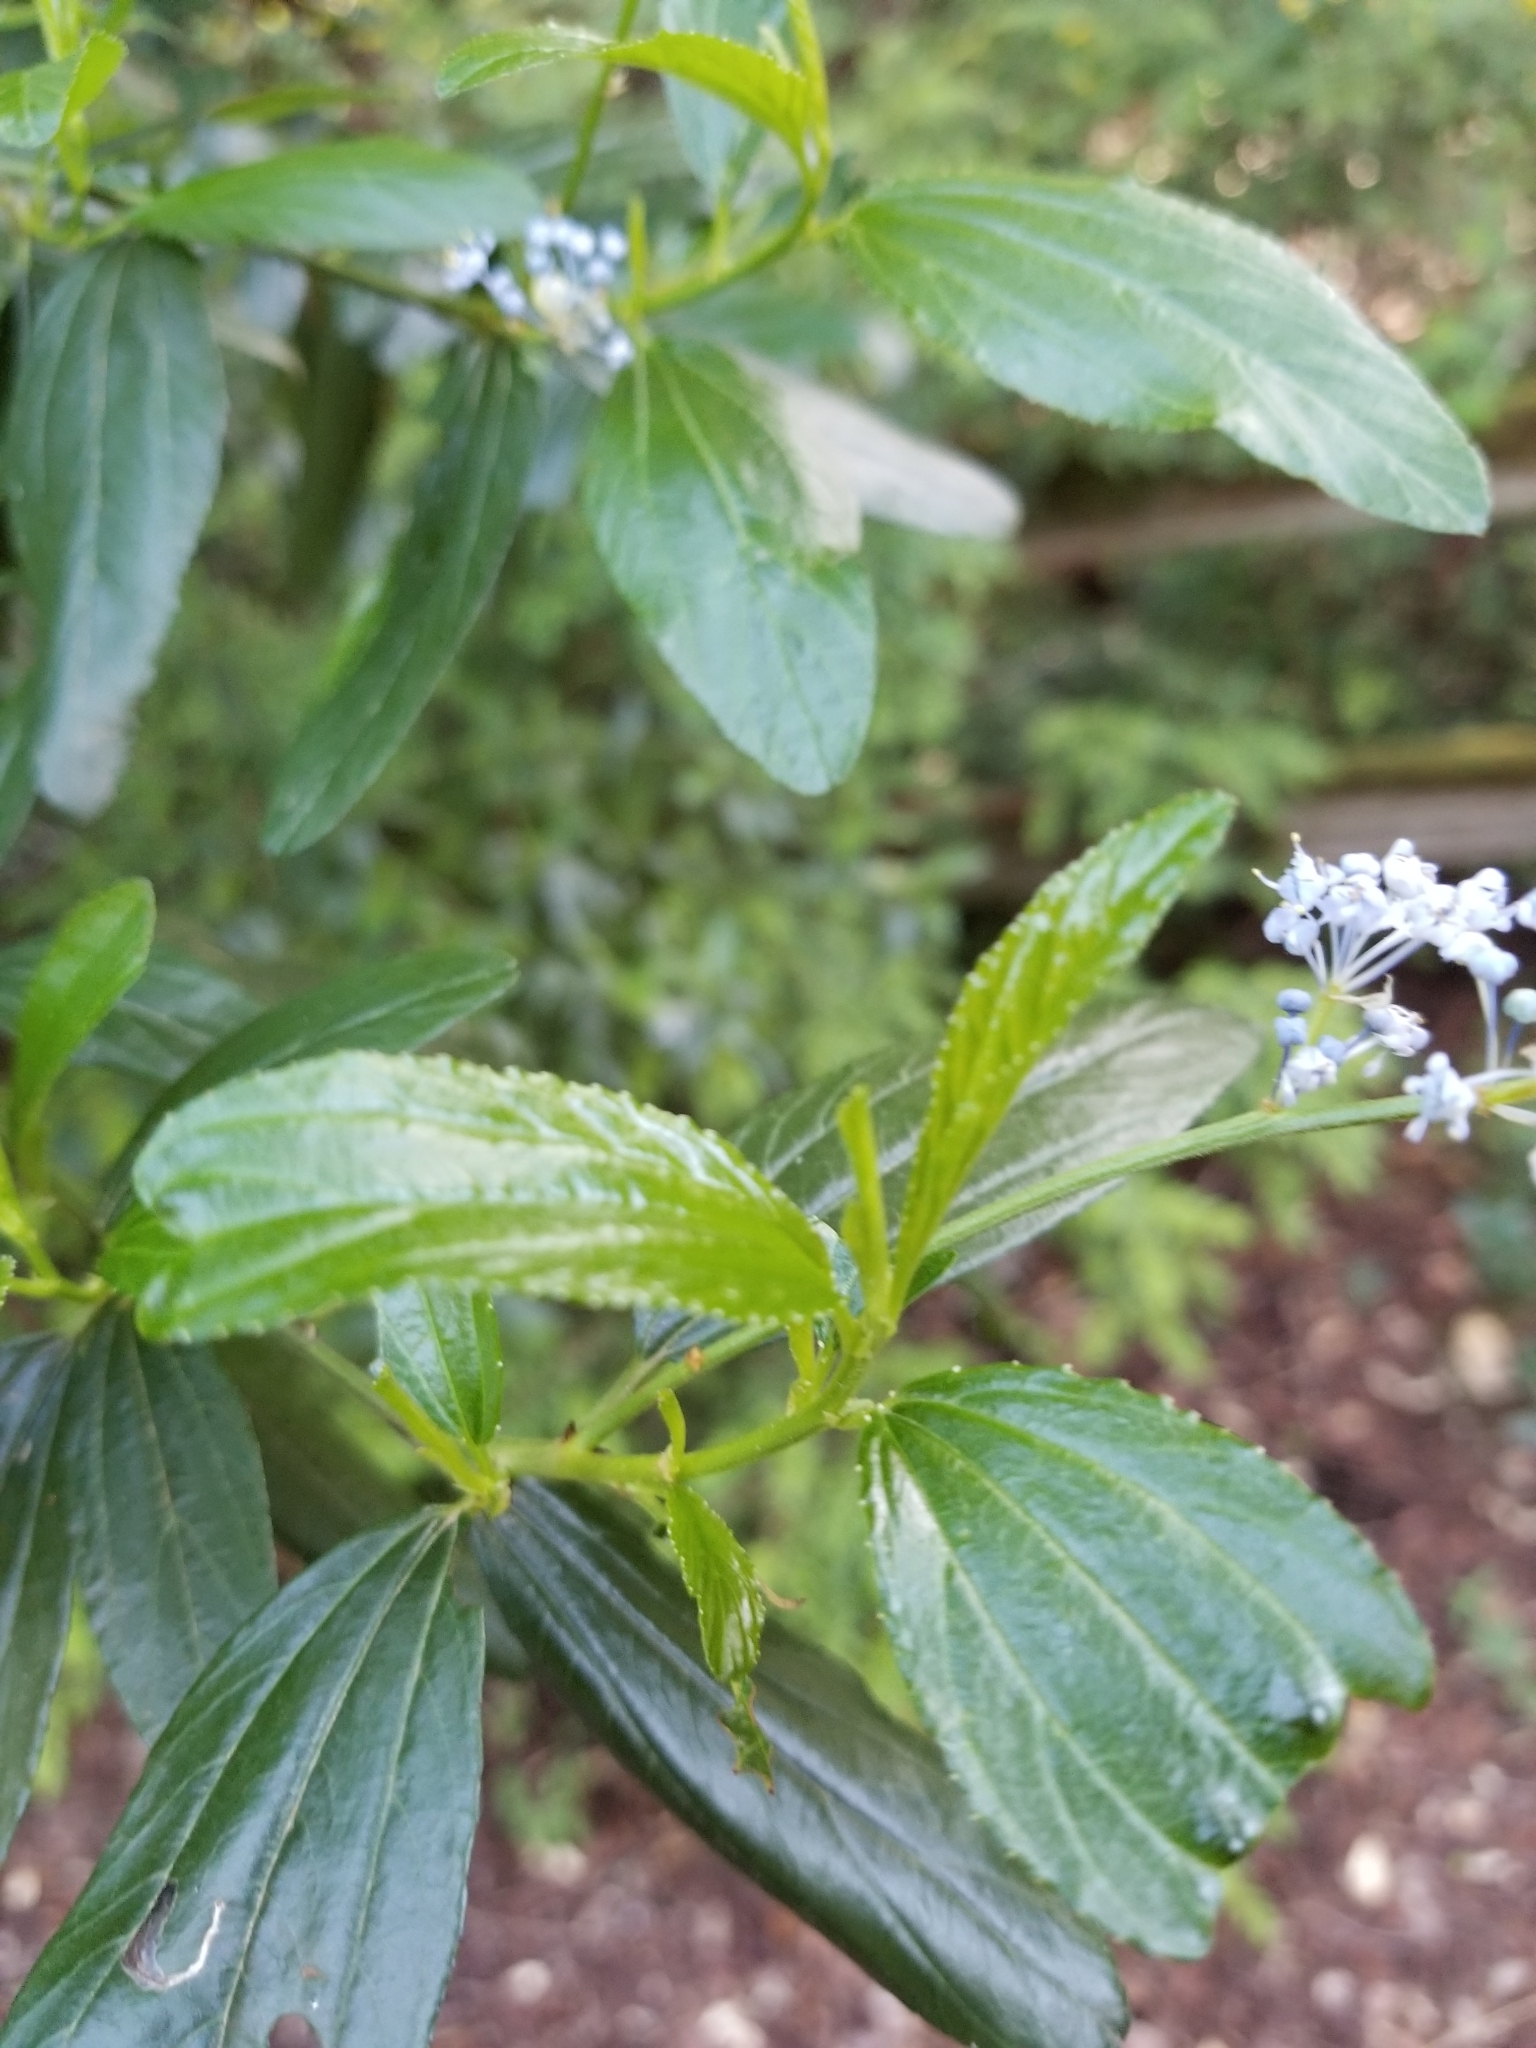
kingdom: Plantae
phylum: Tracheophyta
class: Magnoliopsida
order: Rosales
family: Rhamnaceae
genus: Ceanothus
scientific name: Ceanothus thyrsiflorus
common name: California-lilac
